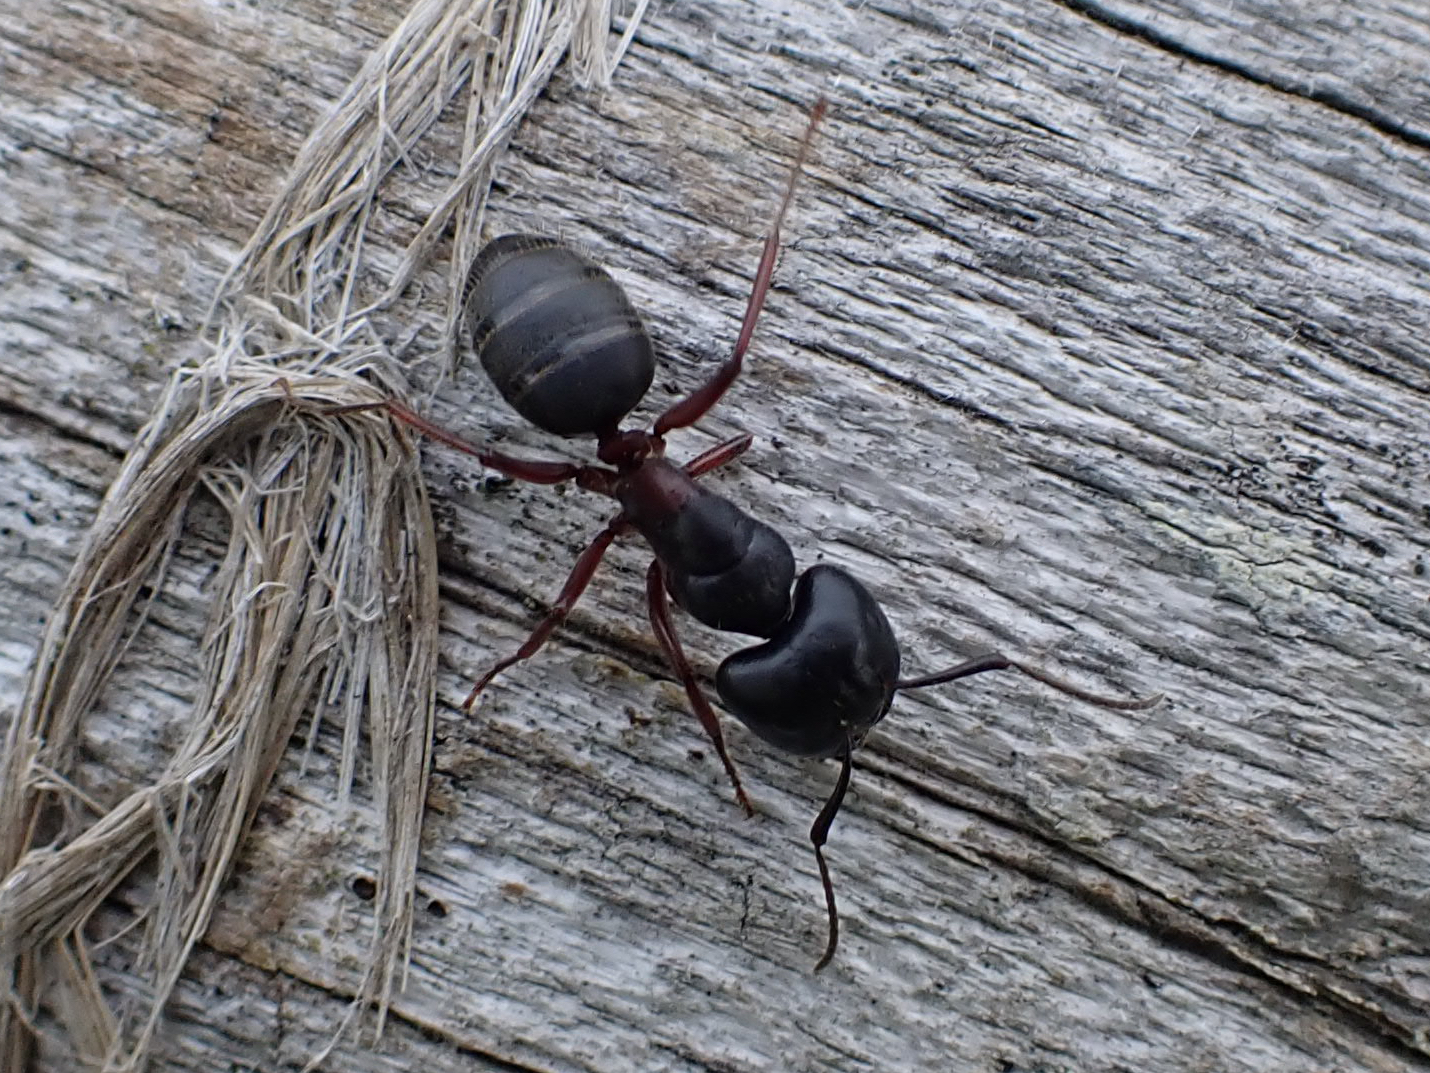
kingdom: Animalia
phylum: Arthropoda
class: Insecta
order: Hymenoptera
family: Formicidae
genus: Camponotus
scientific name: Camponotus herculeanus
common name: Hercules ant
